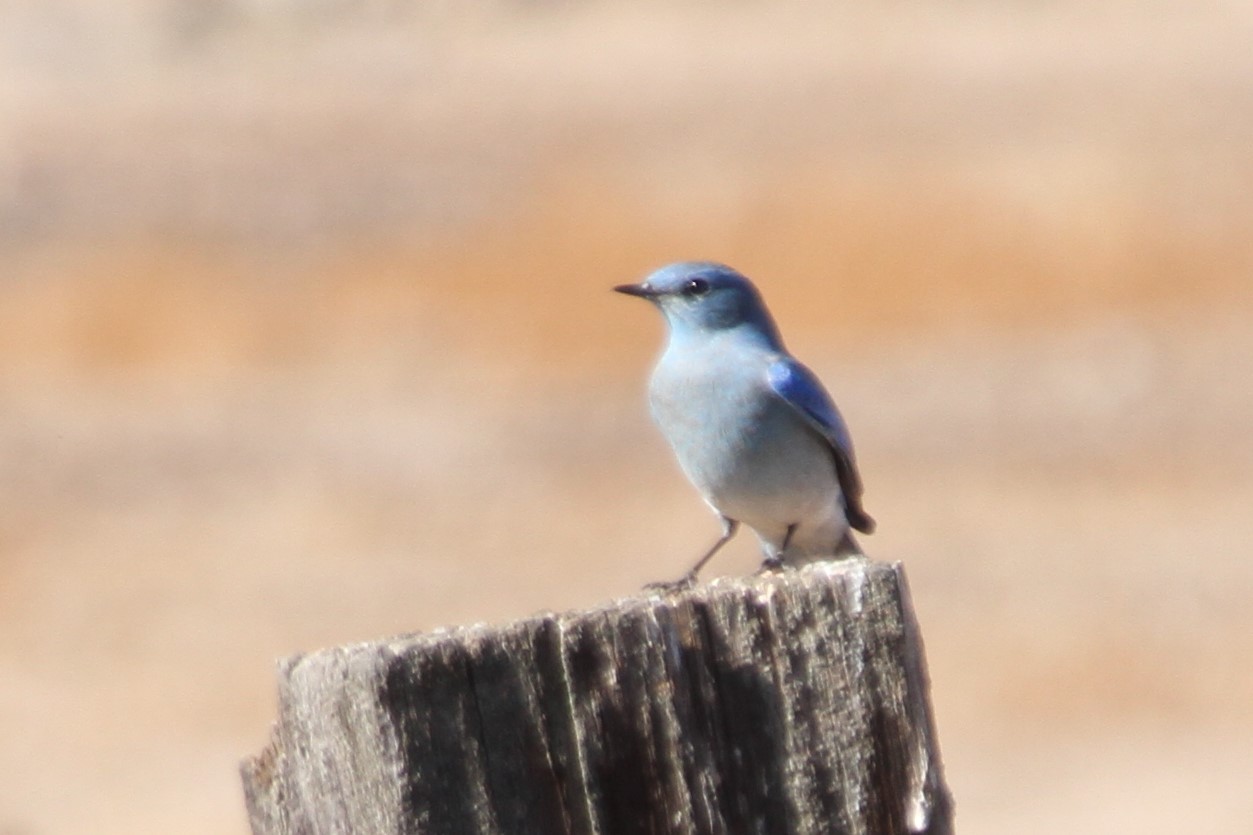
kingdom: Animalia
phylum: Chordata
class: Aves
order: Passeriformes
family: Turdidae
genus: Sialia
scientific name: Sialia currucoides
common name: Mountain bluebird
